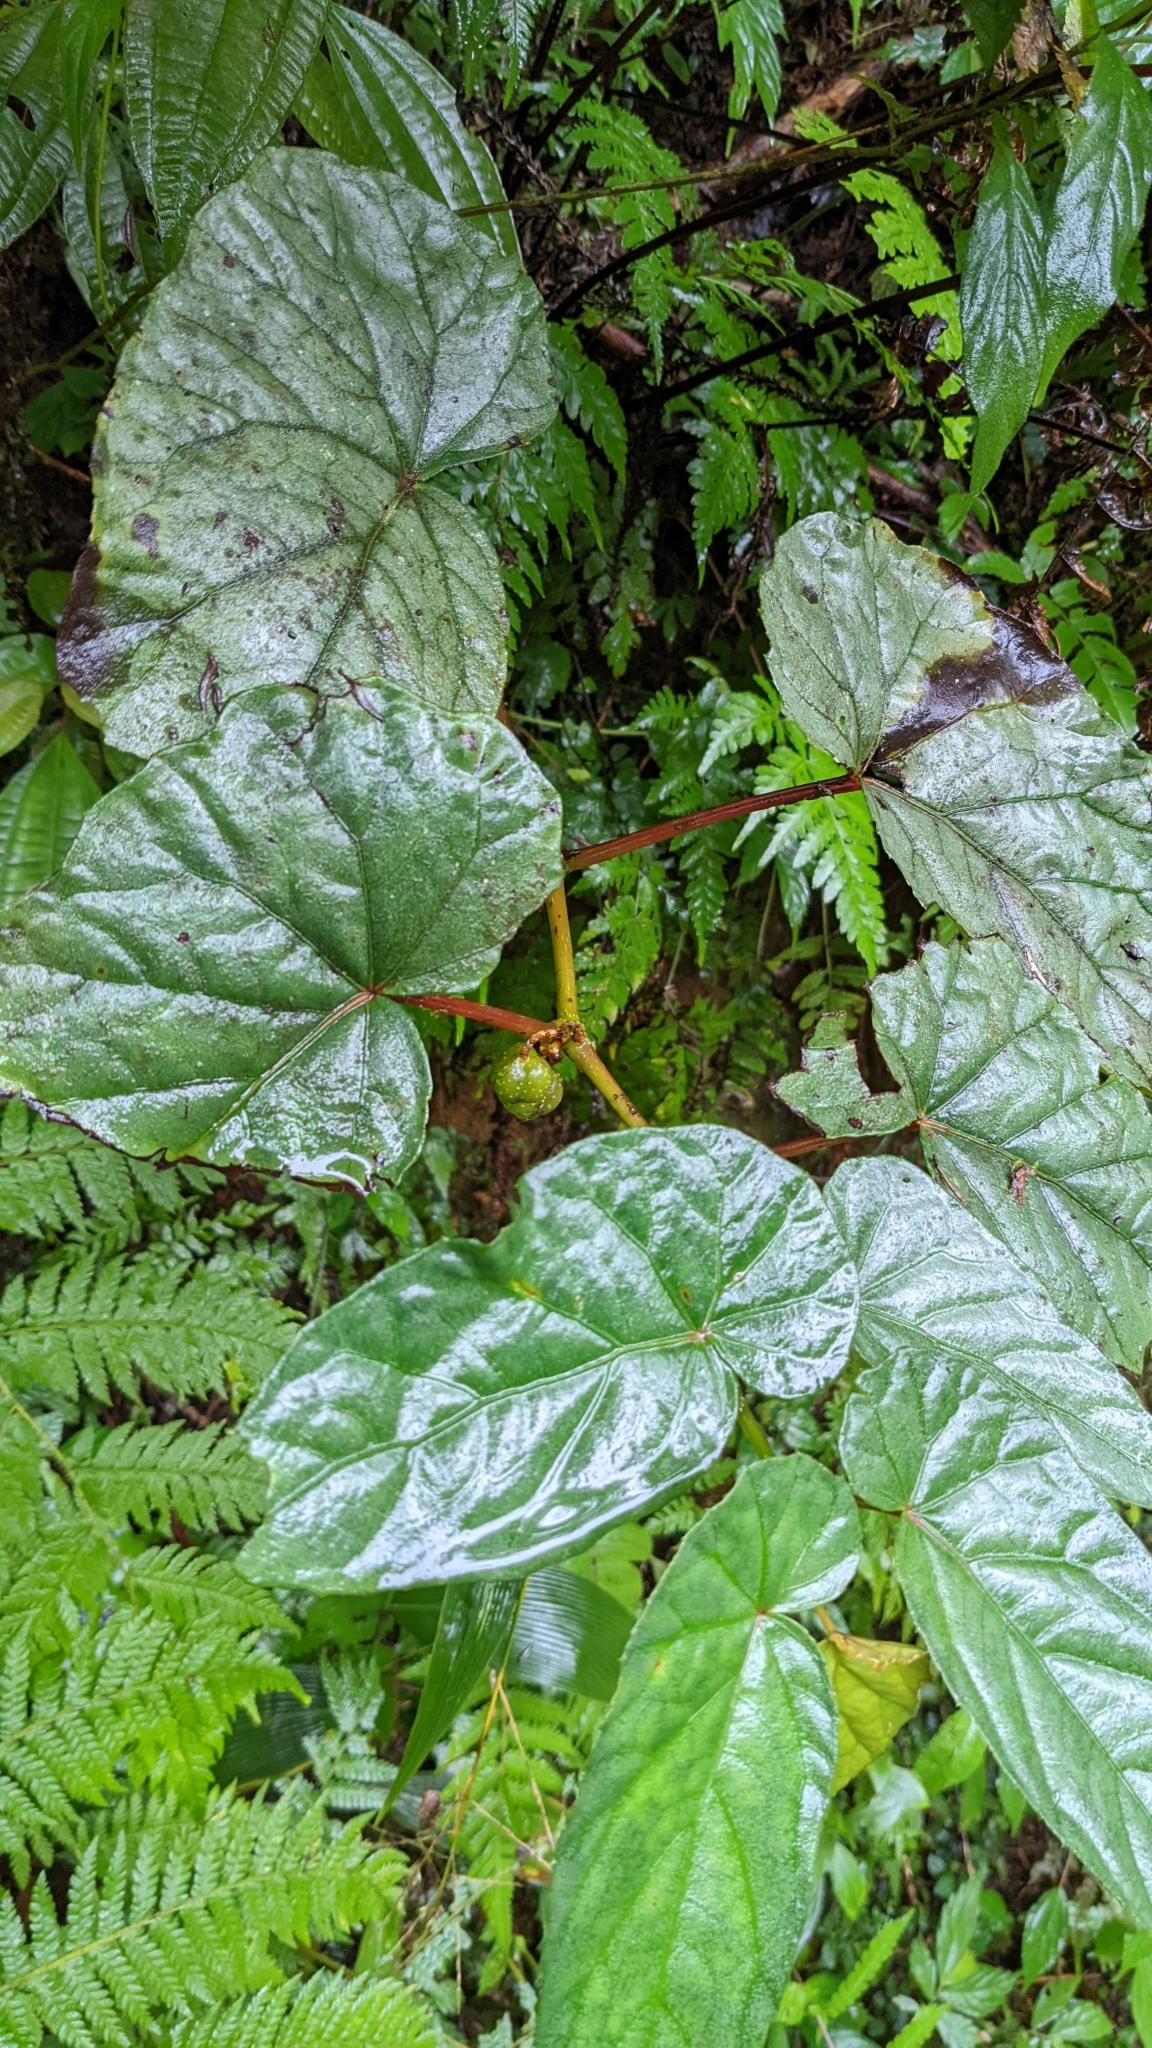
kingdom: Plantae
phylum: Tracheophyta
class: Magnoliopsida
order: Cucurbitales
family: Begoniaceae
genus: Begonia
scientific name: Begonia longifolia
